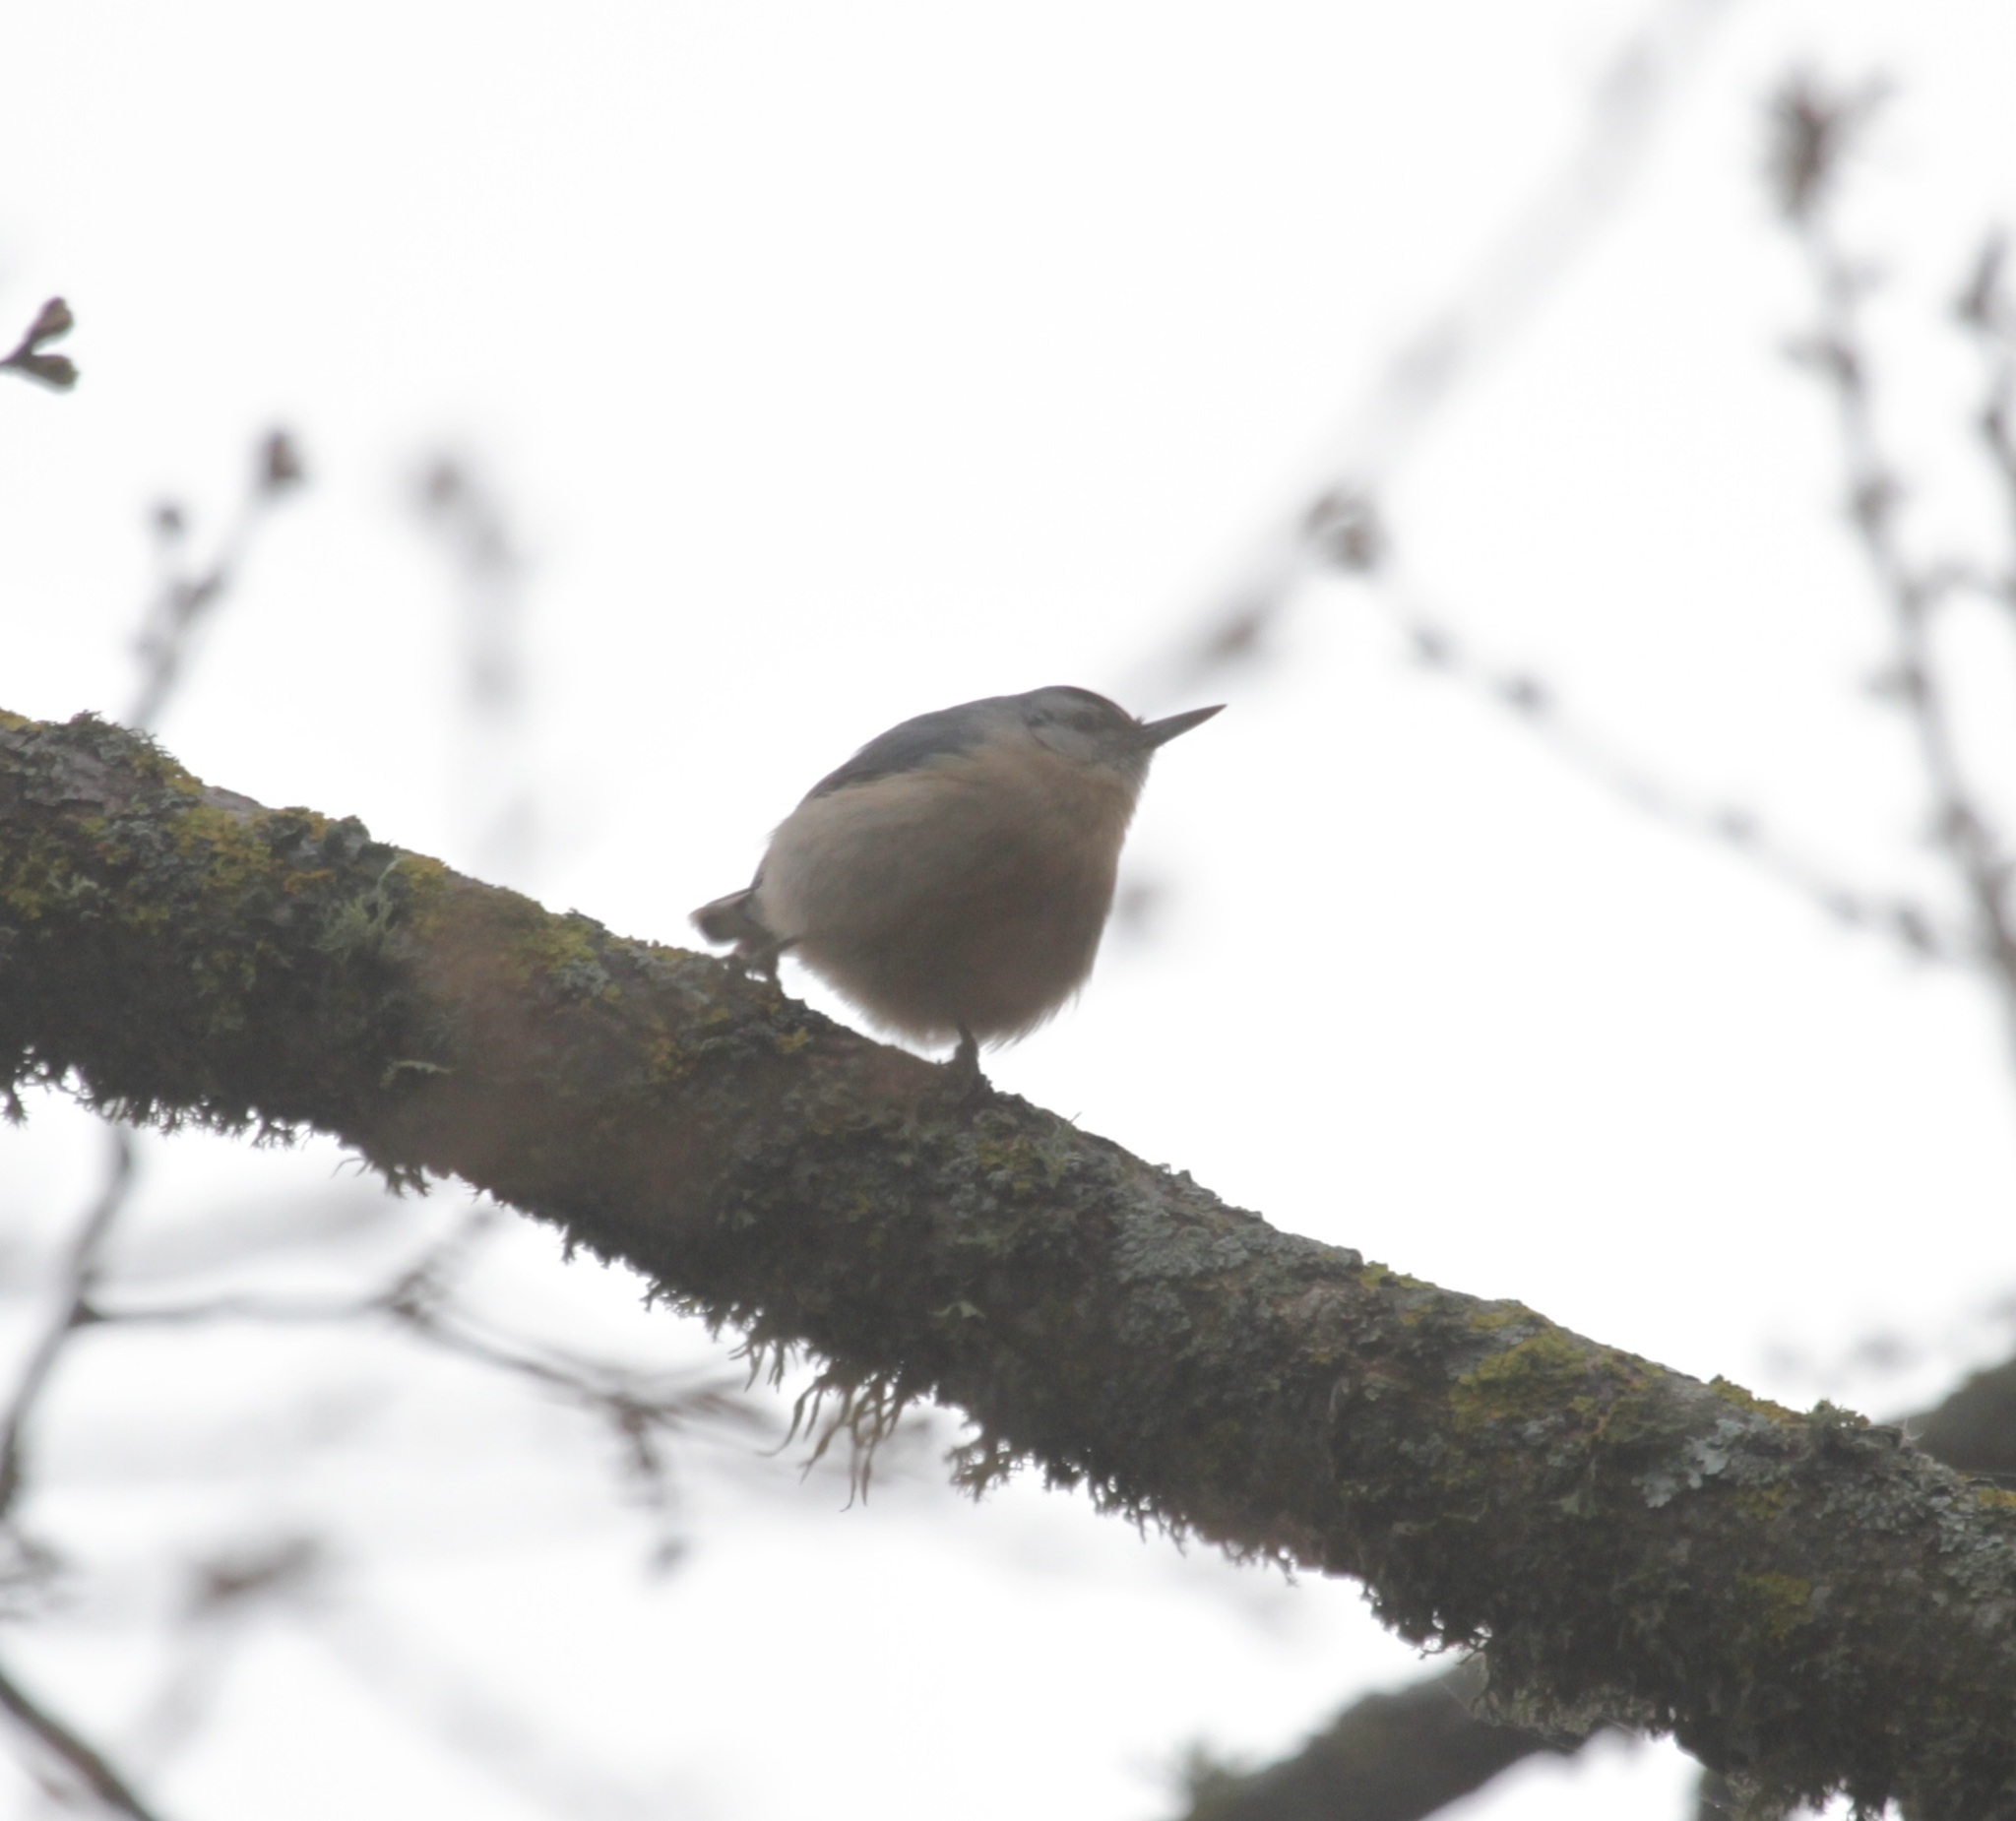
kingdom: Animalia
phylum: Chordata
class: Aves
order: Passeriformes
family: Sittidae
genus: Sitta
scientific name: Sitta ledanti
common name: Algerian nuthatch
